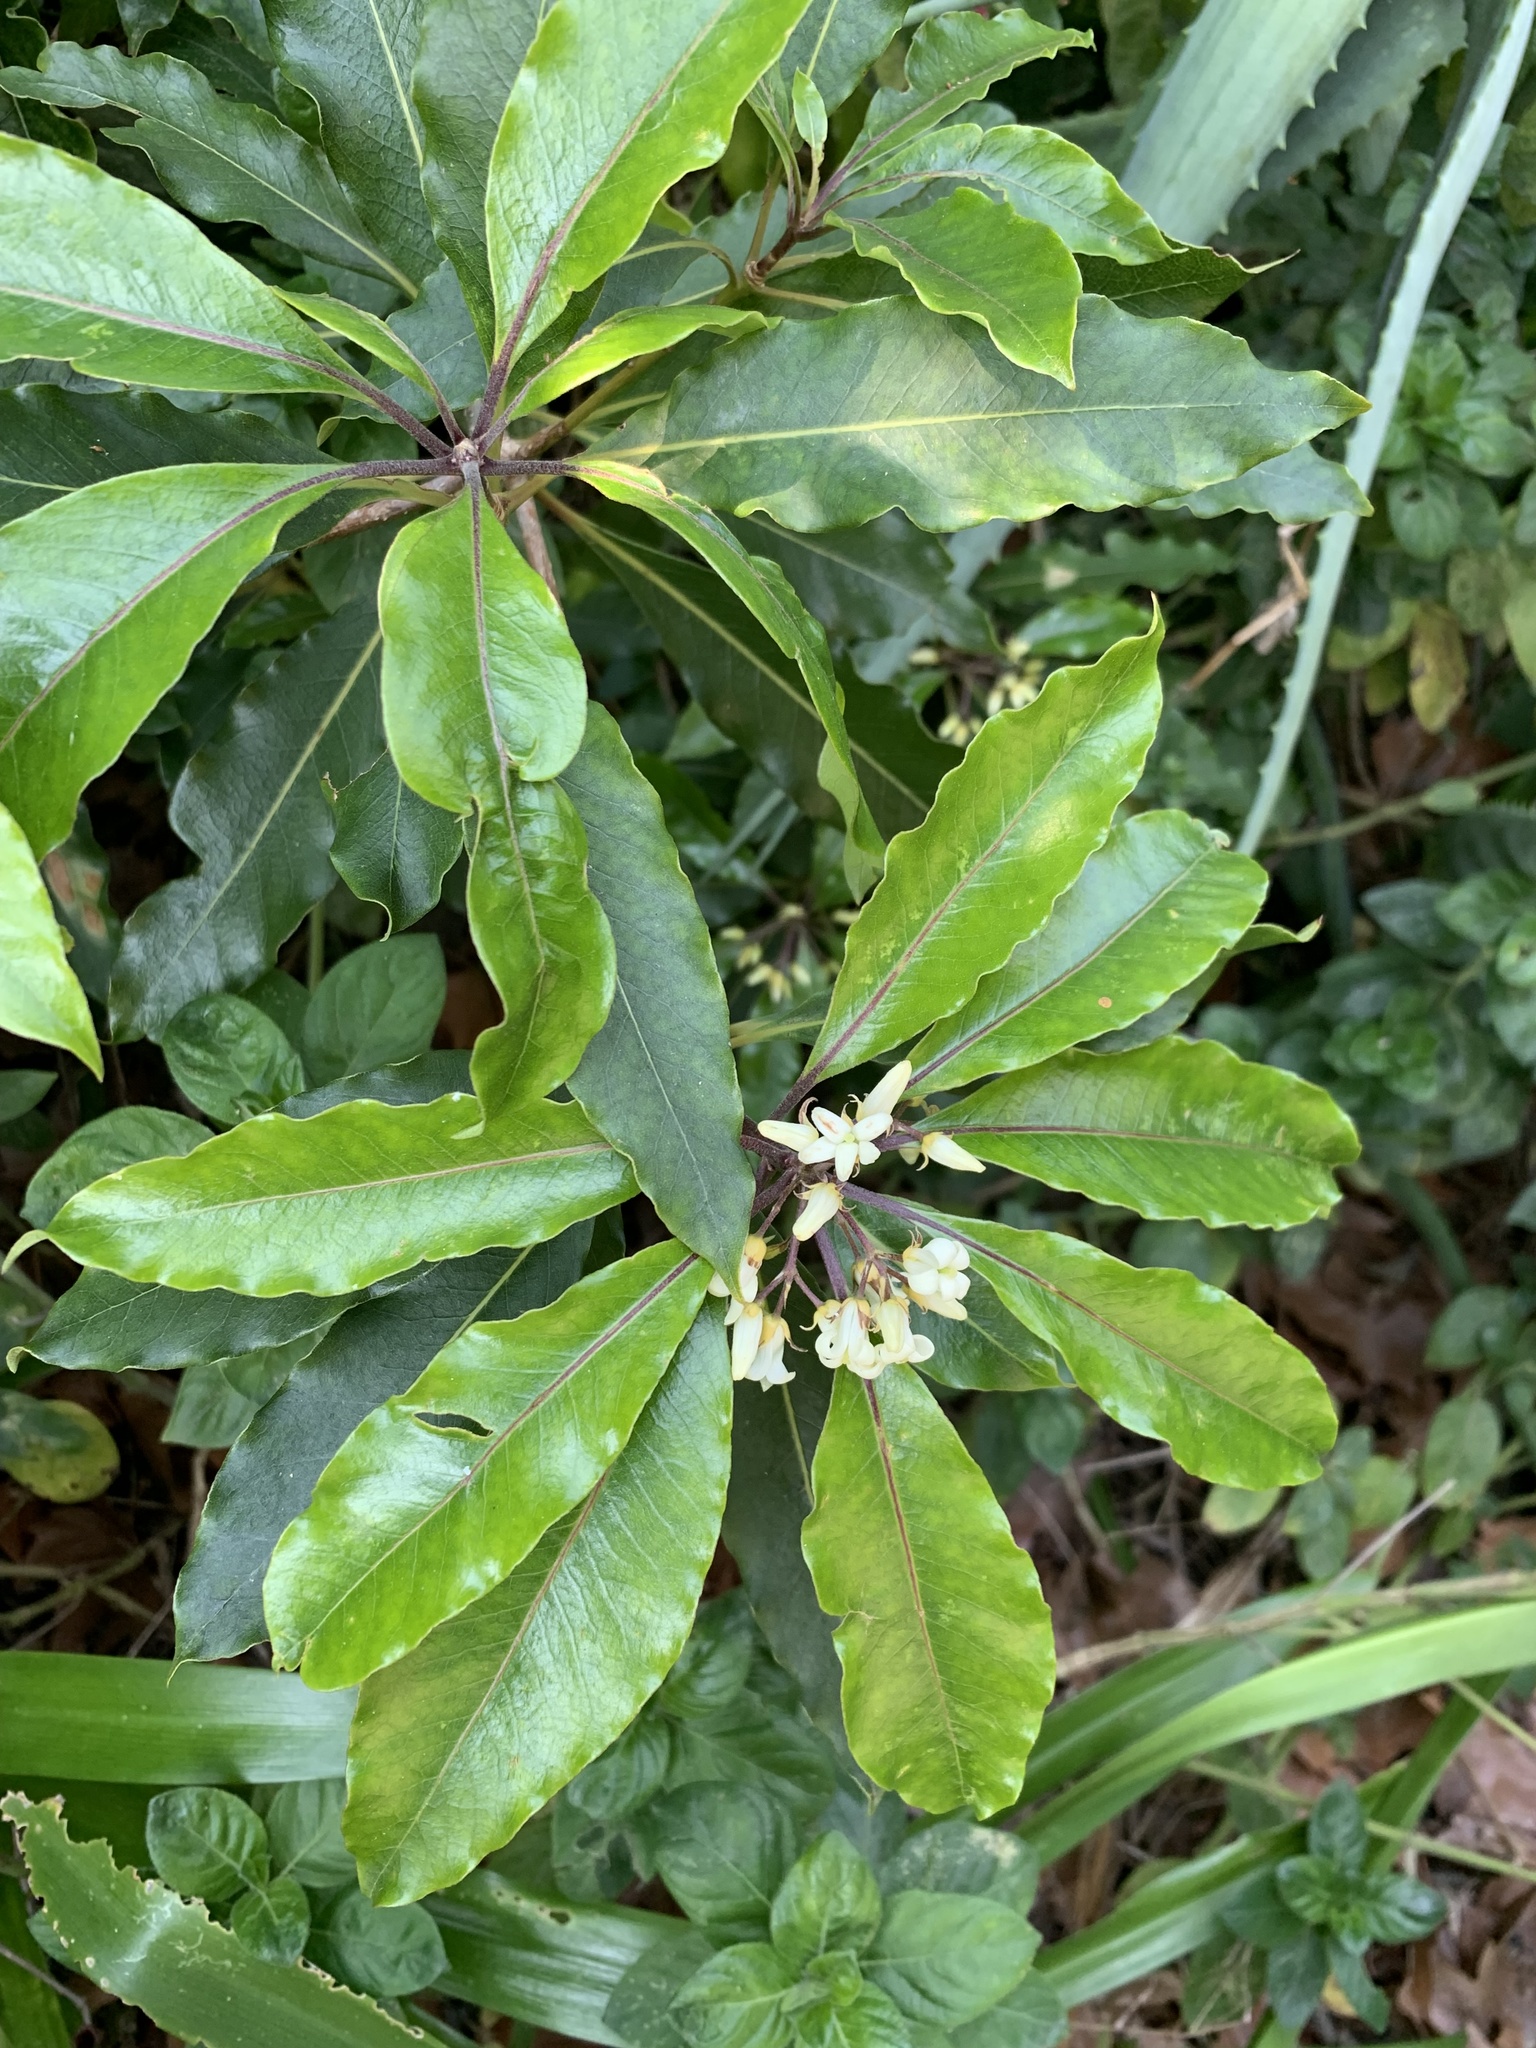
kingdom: Plantae
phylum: Tracheophyta
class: Magnoliopsida
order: Apiales
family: Pittosporaceae
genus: Pittosporum
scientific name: Pittosporum undulatum
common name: Australian cheesewood
